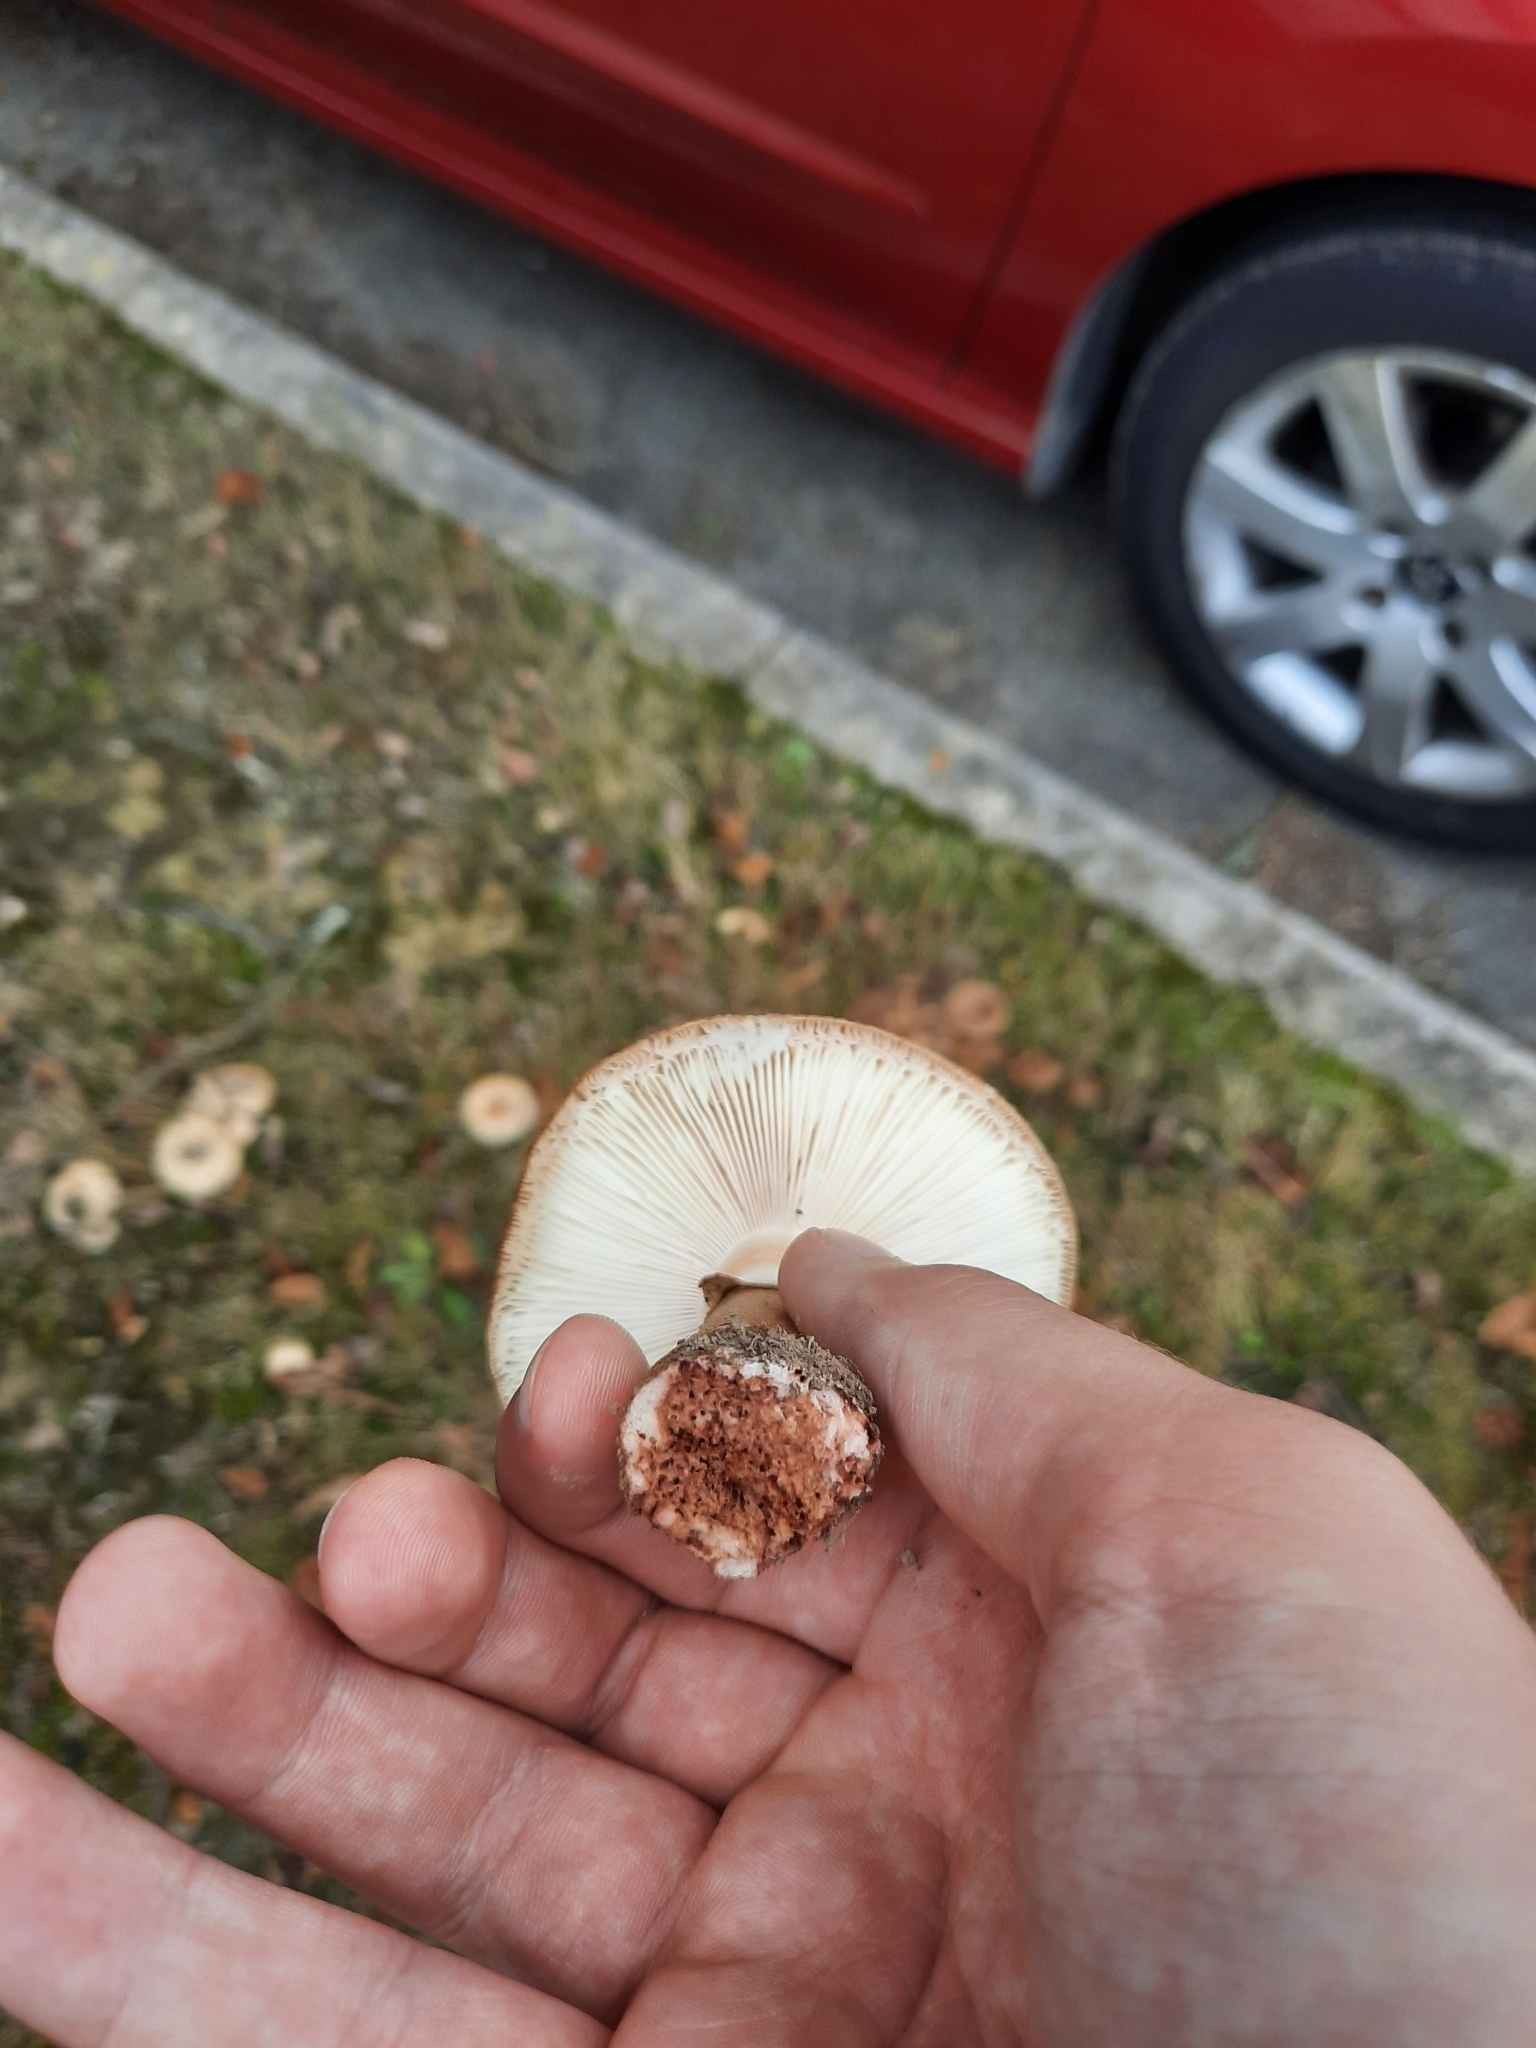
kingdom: Fungi
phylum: Basidiomycota
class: Agaricomycetes
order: Agaricales
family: Amanitaceae
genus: Amanita
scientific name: Amanita rubescens
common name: Blusher
